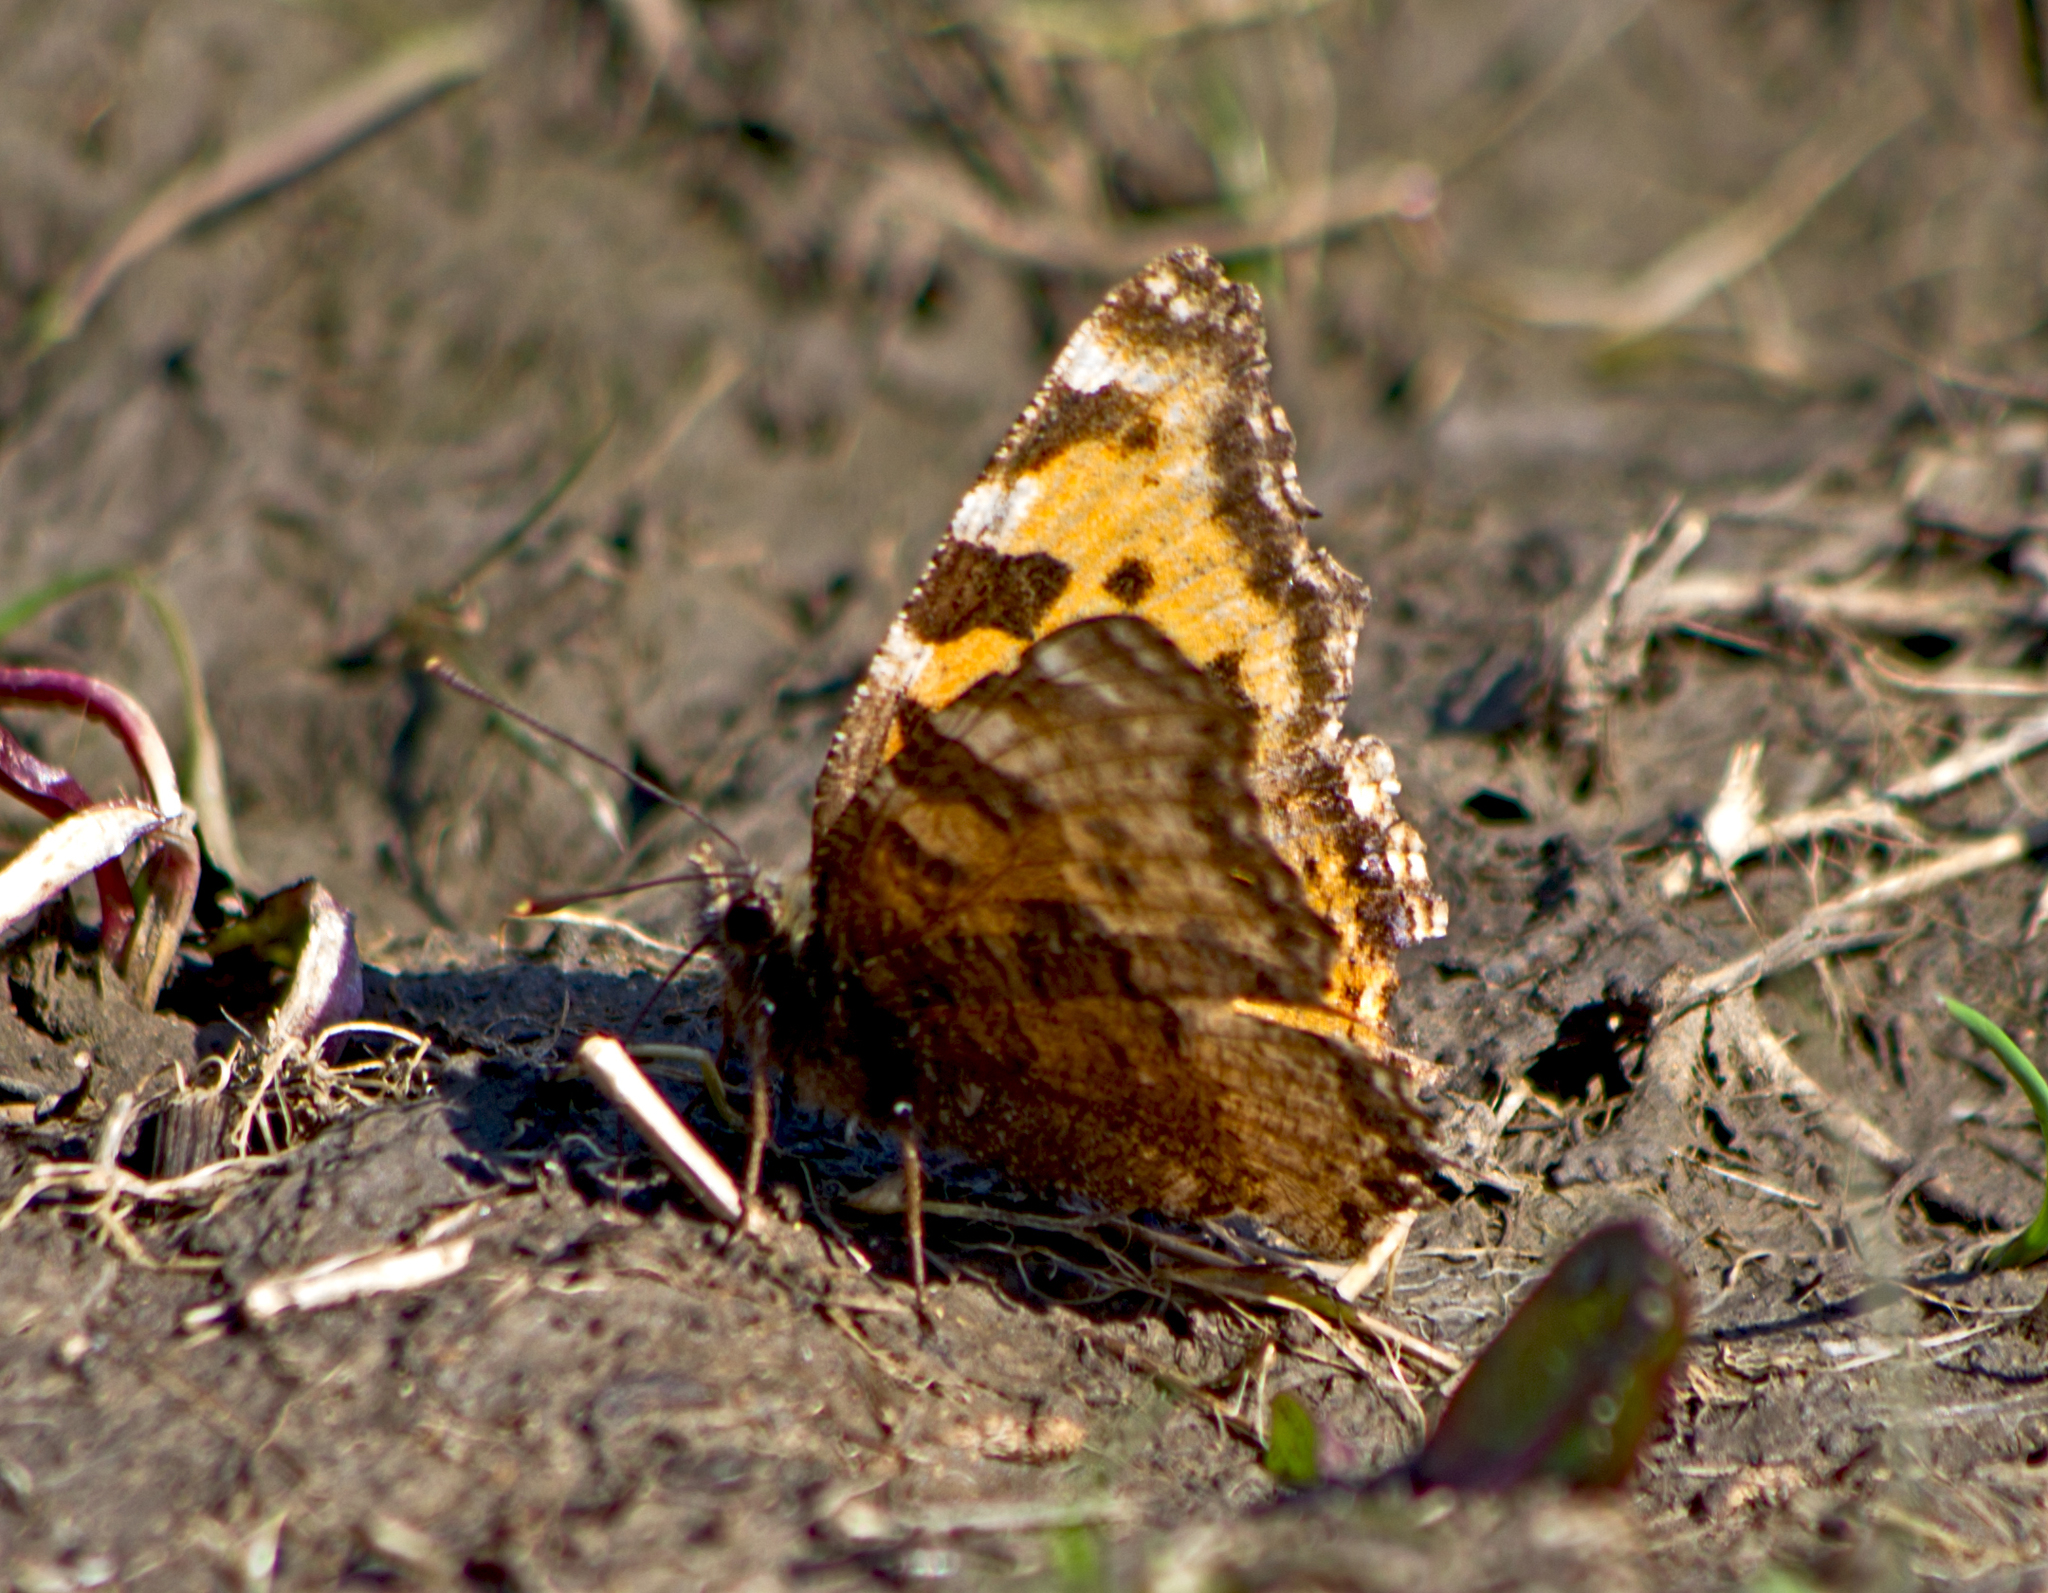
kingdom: Animalia
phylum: Arthropoda
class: Insecta
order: Lepidoptera
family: Nymphalidae
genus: Nymphalis
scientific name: Nymphalis polychloros
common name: Large tortoiseshell
